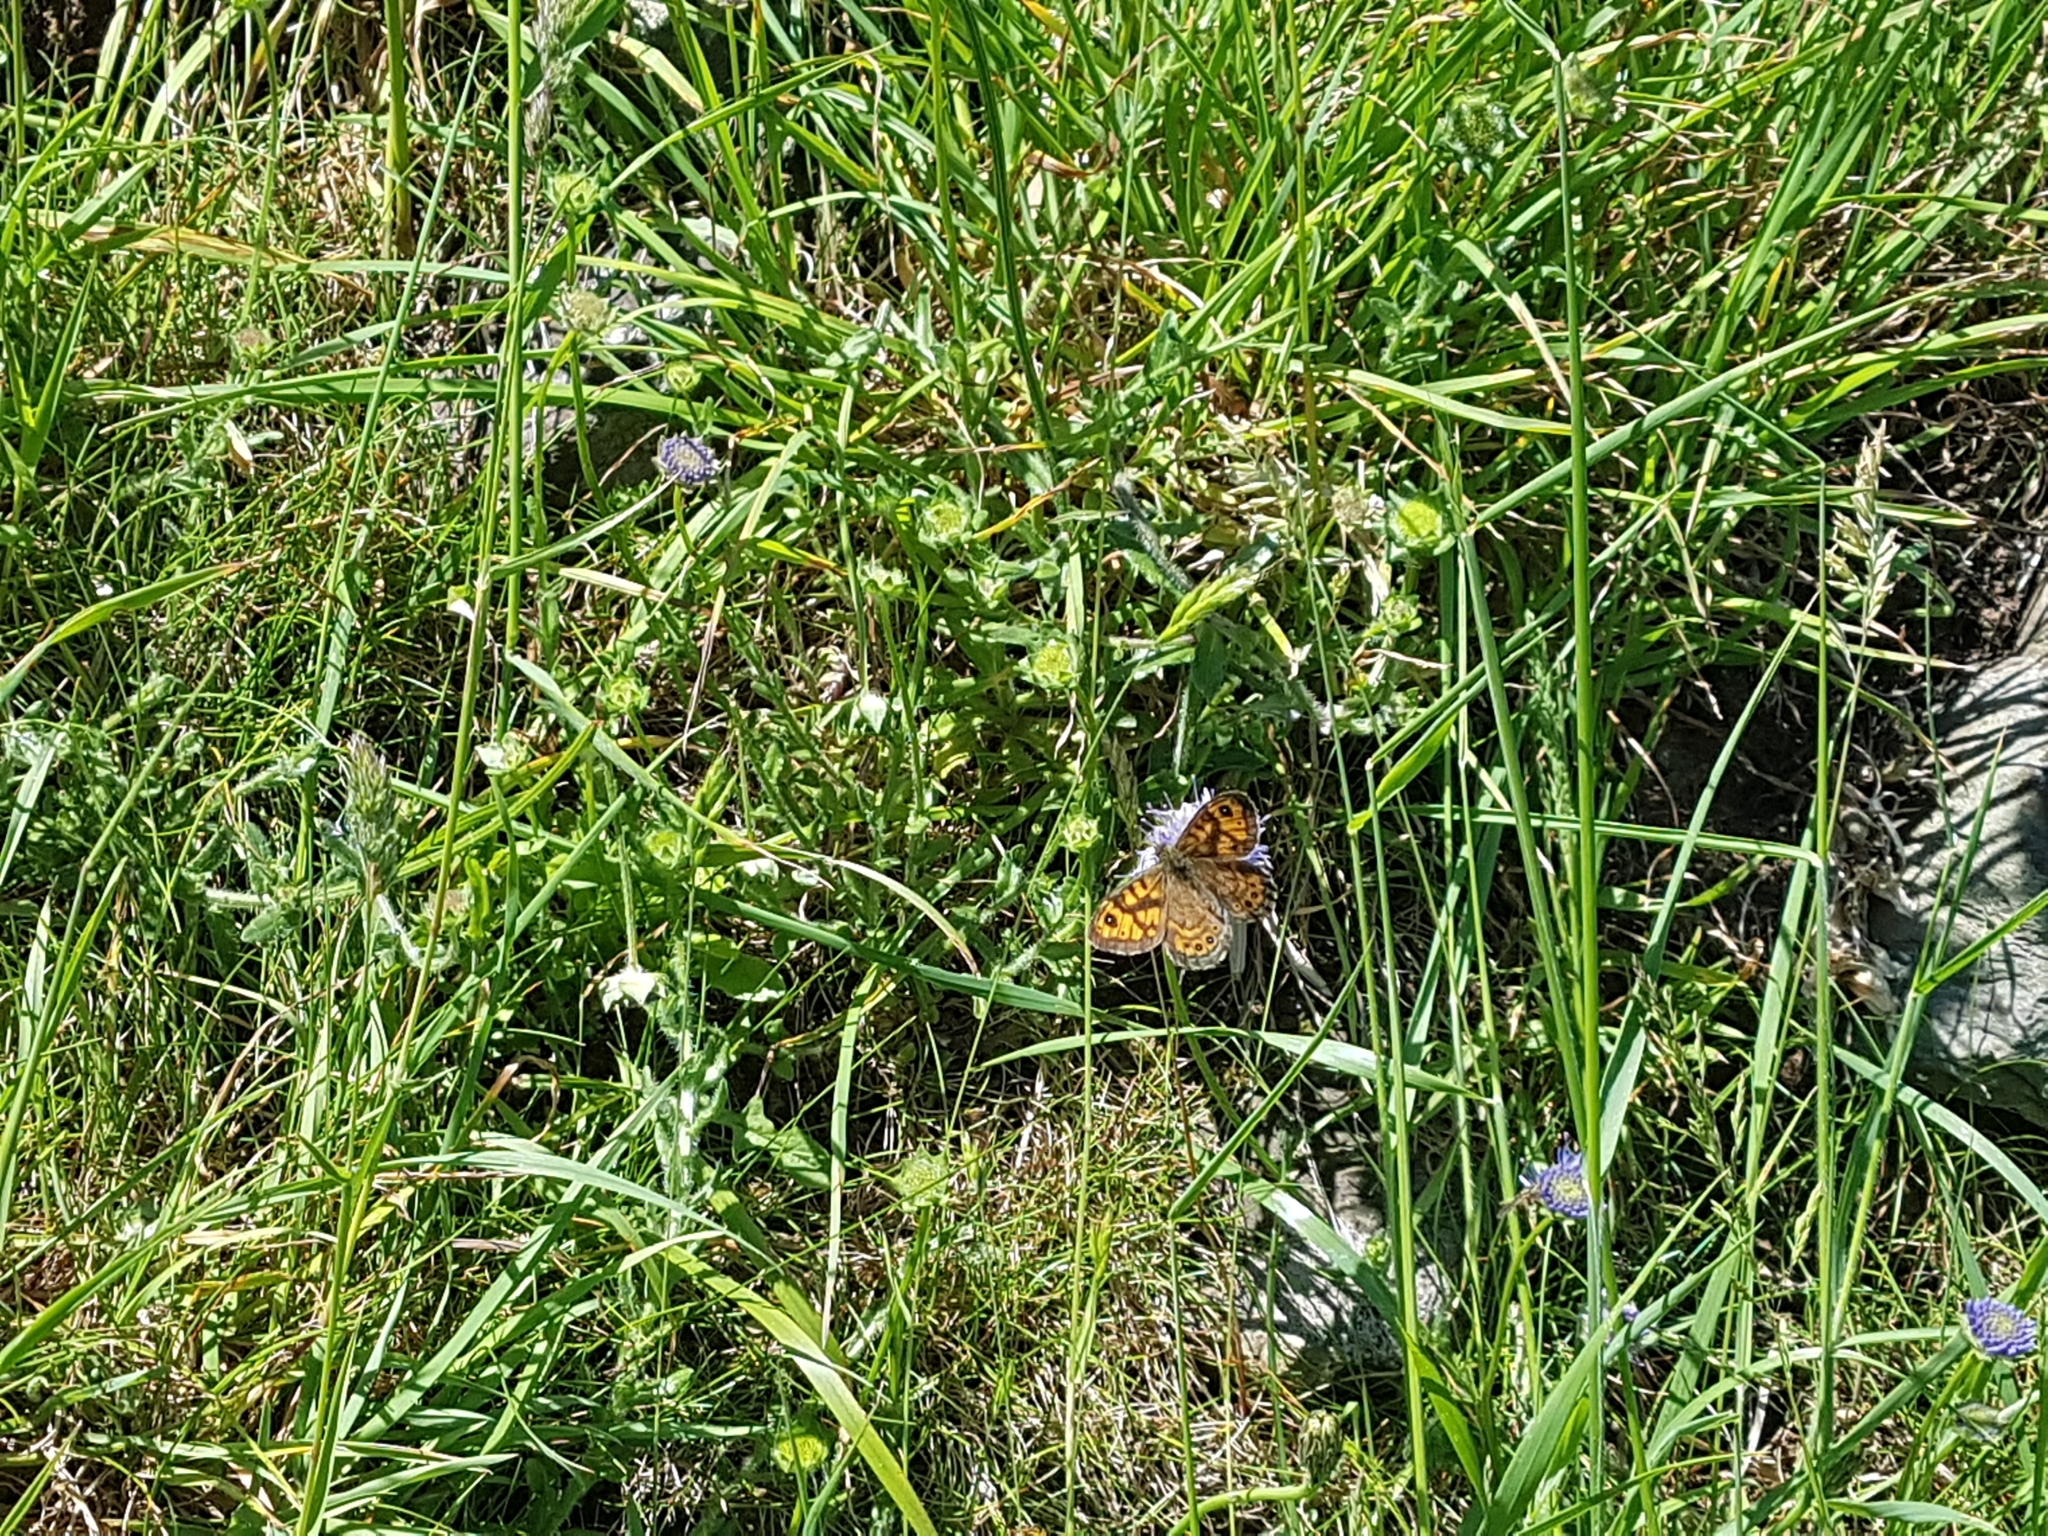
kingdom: Animalia
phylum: Arthropoda
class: Insecta
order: Lepidoptera
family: Nymphalidae
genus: Pararge
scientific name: Pararge Lasiommata megera
